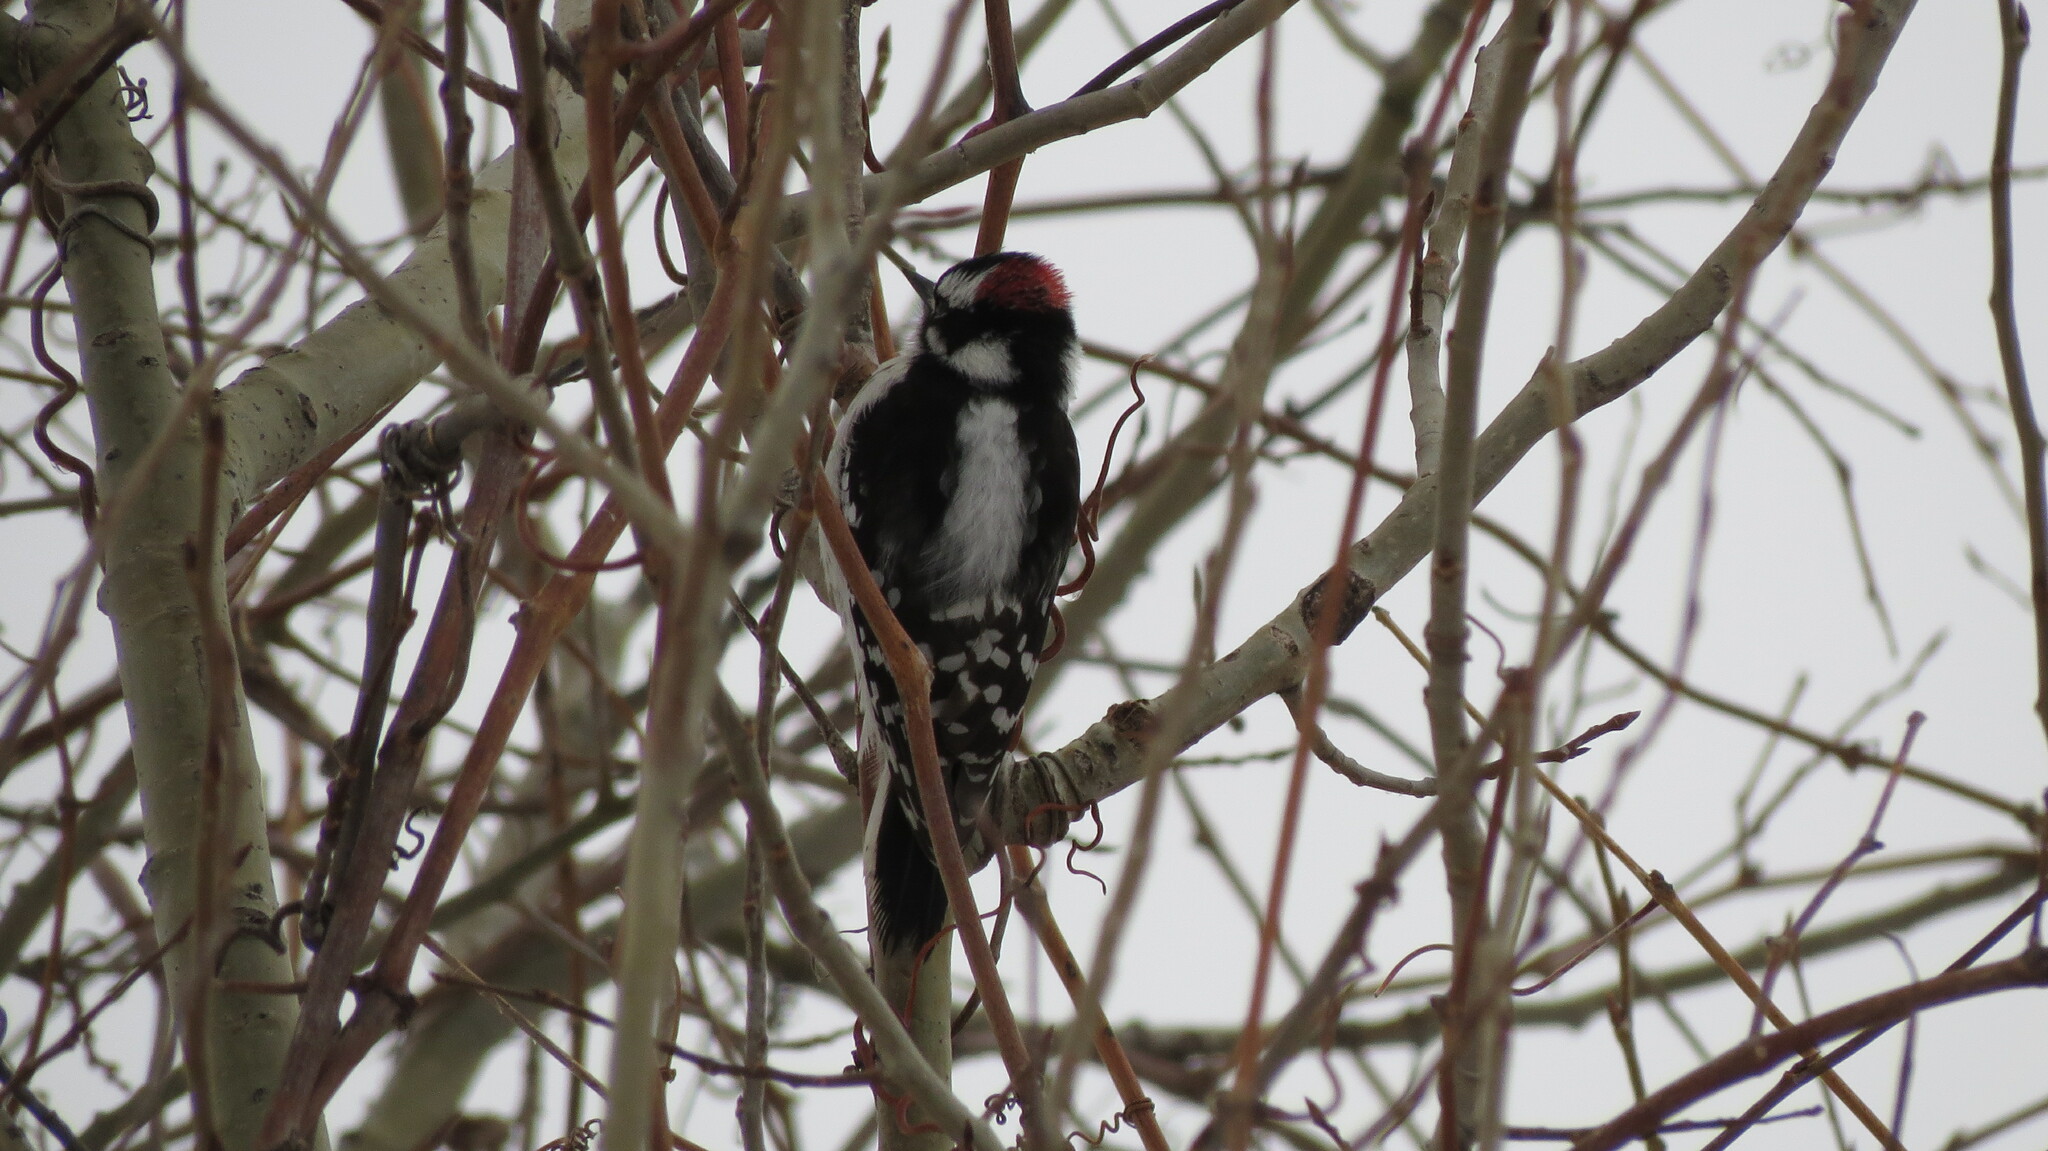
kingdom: Animalia
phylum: Chordata
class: Aves
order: Piciformes
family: Picidae
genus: Dryobates
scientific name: Dryobates pubescens
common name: Downy woodpecker
